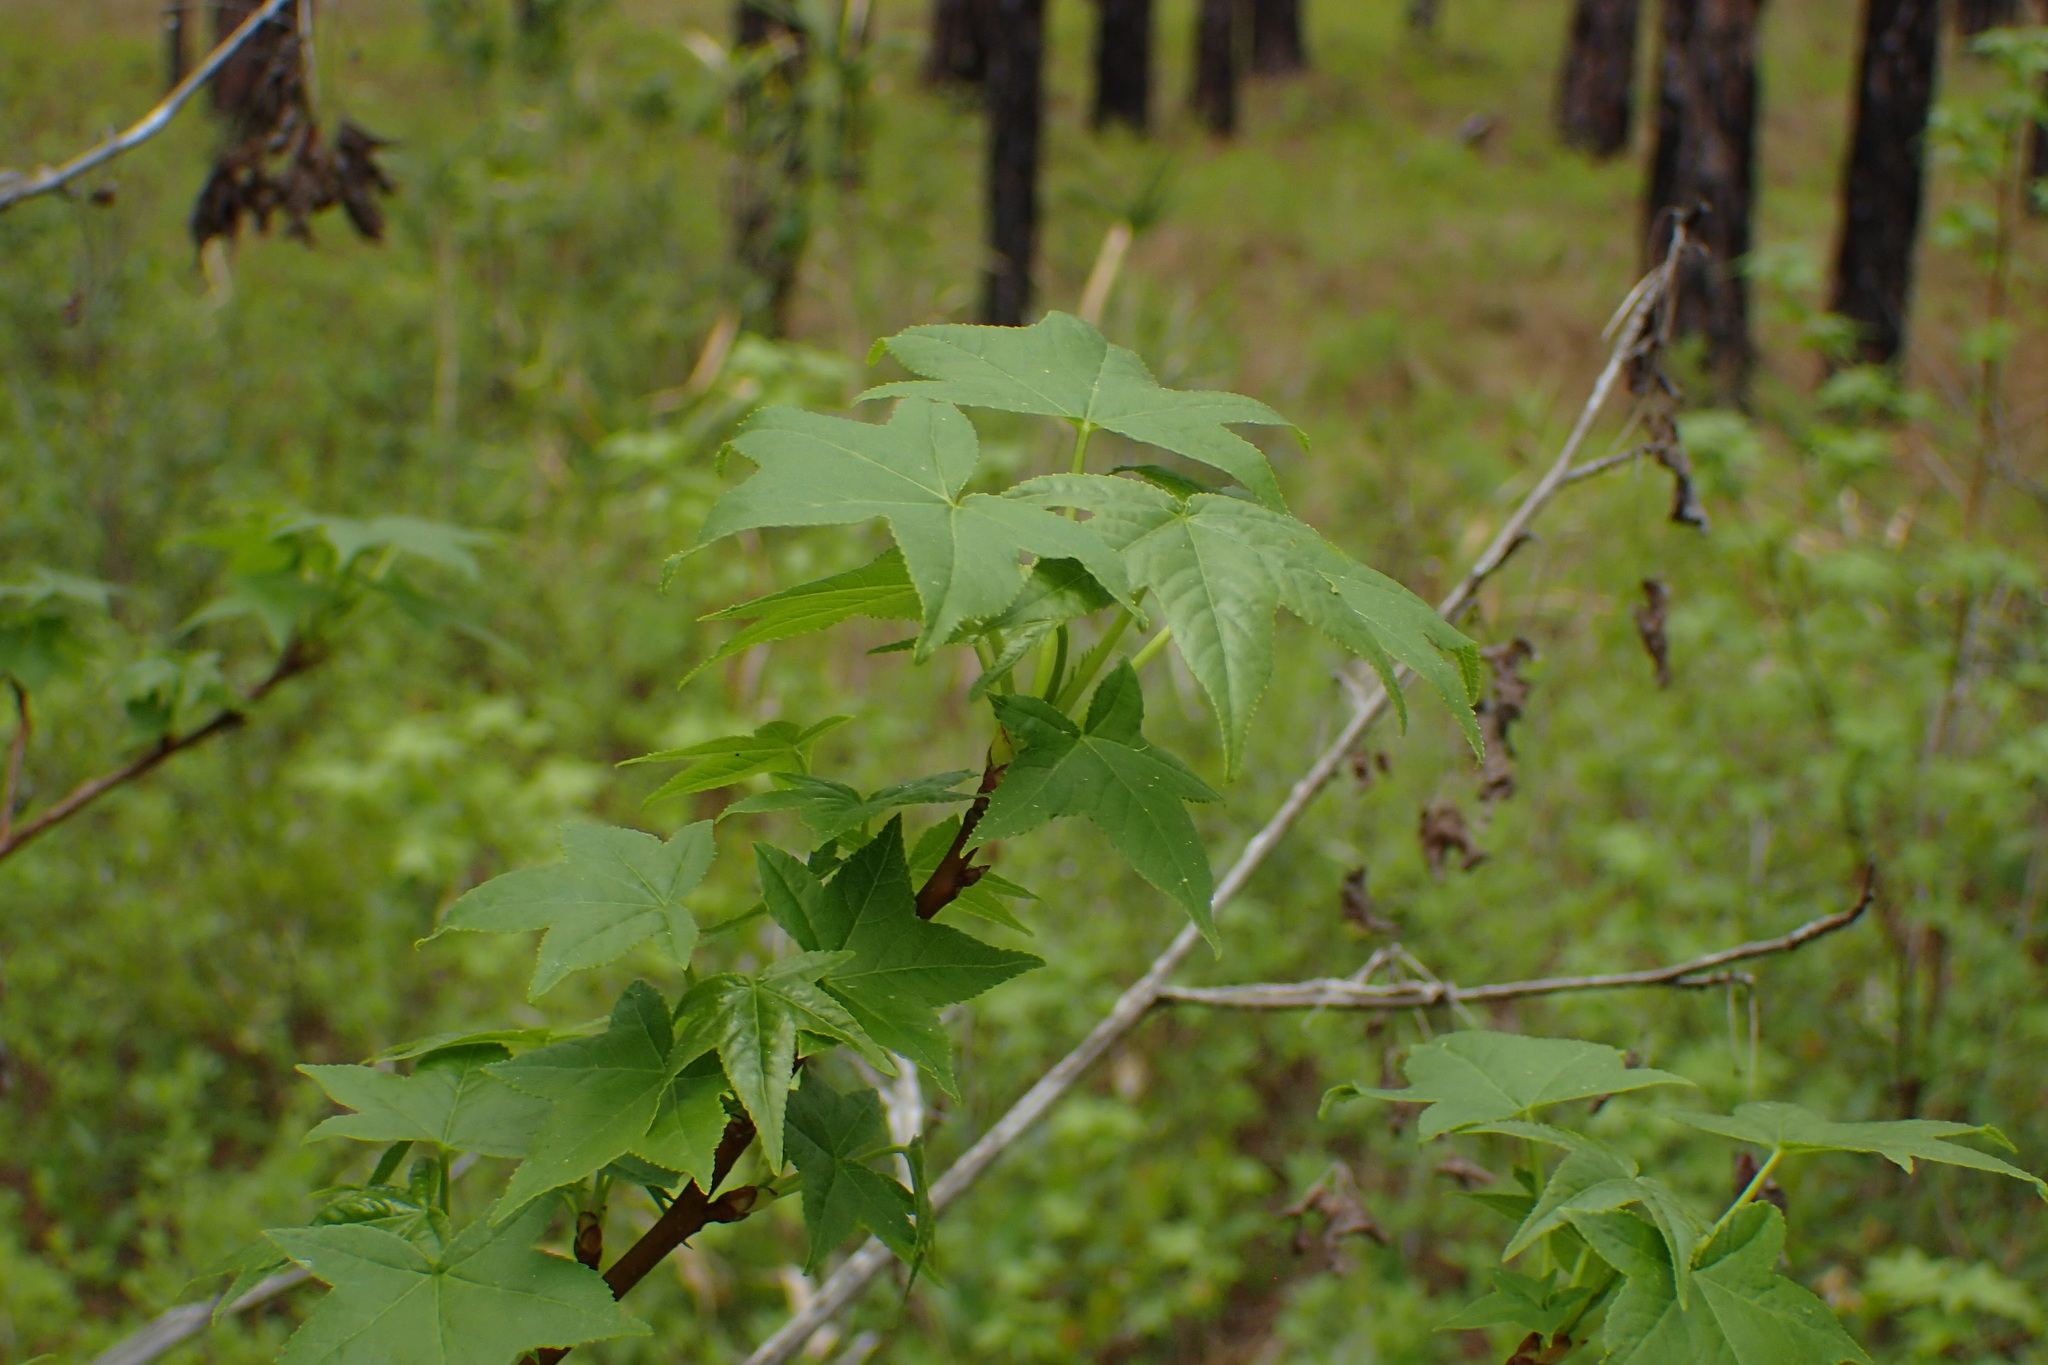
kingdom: Plantae
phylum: Tracheophyta
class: Magnoliopsida
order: Saxifragales
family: Altingiaceae
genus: Liquidambar
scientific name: Liquidambar styraciflua
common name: Sweet gum
